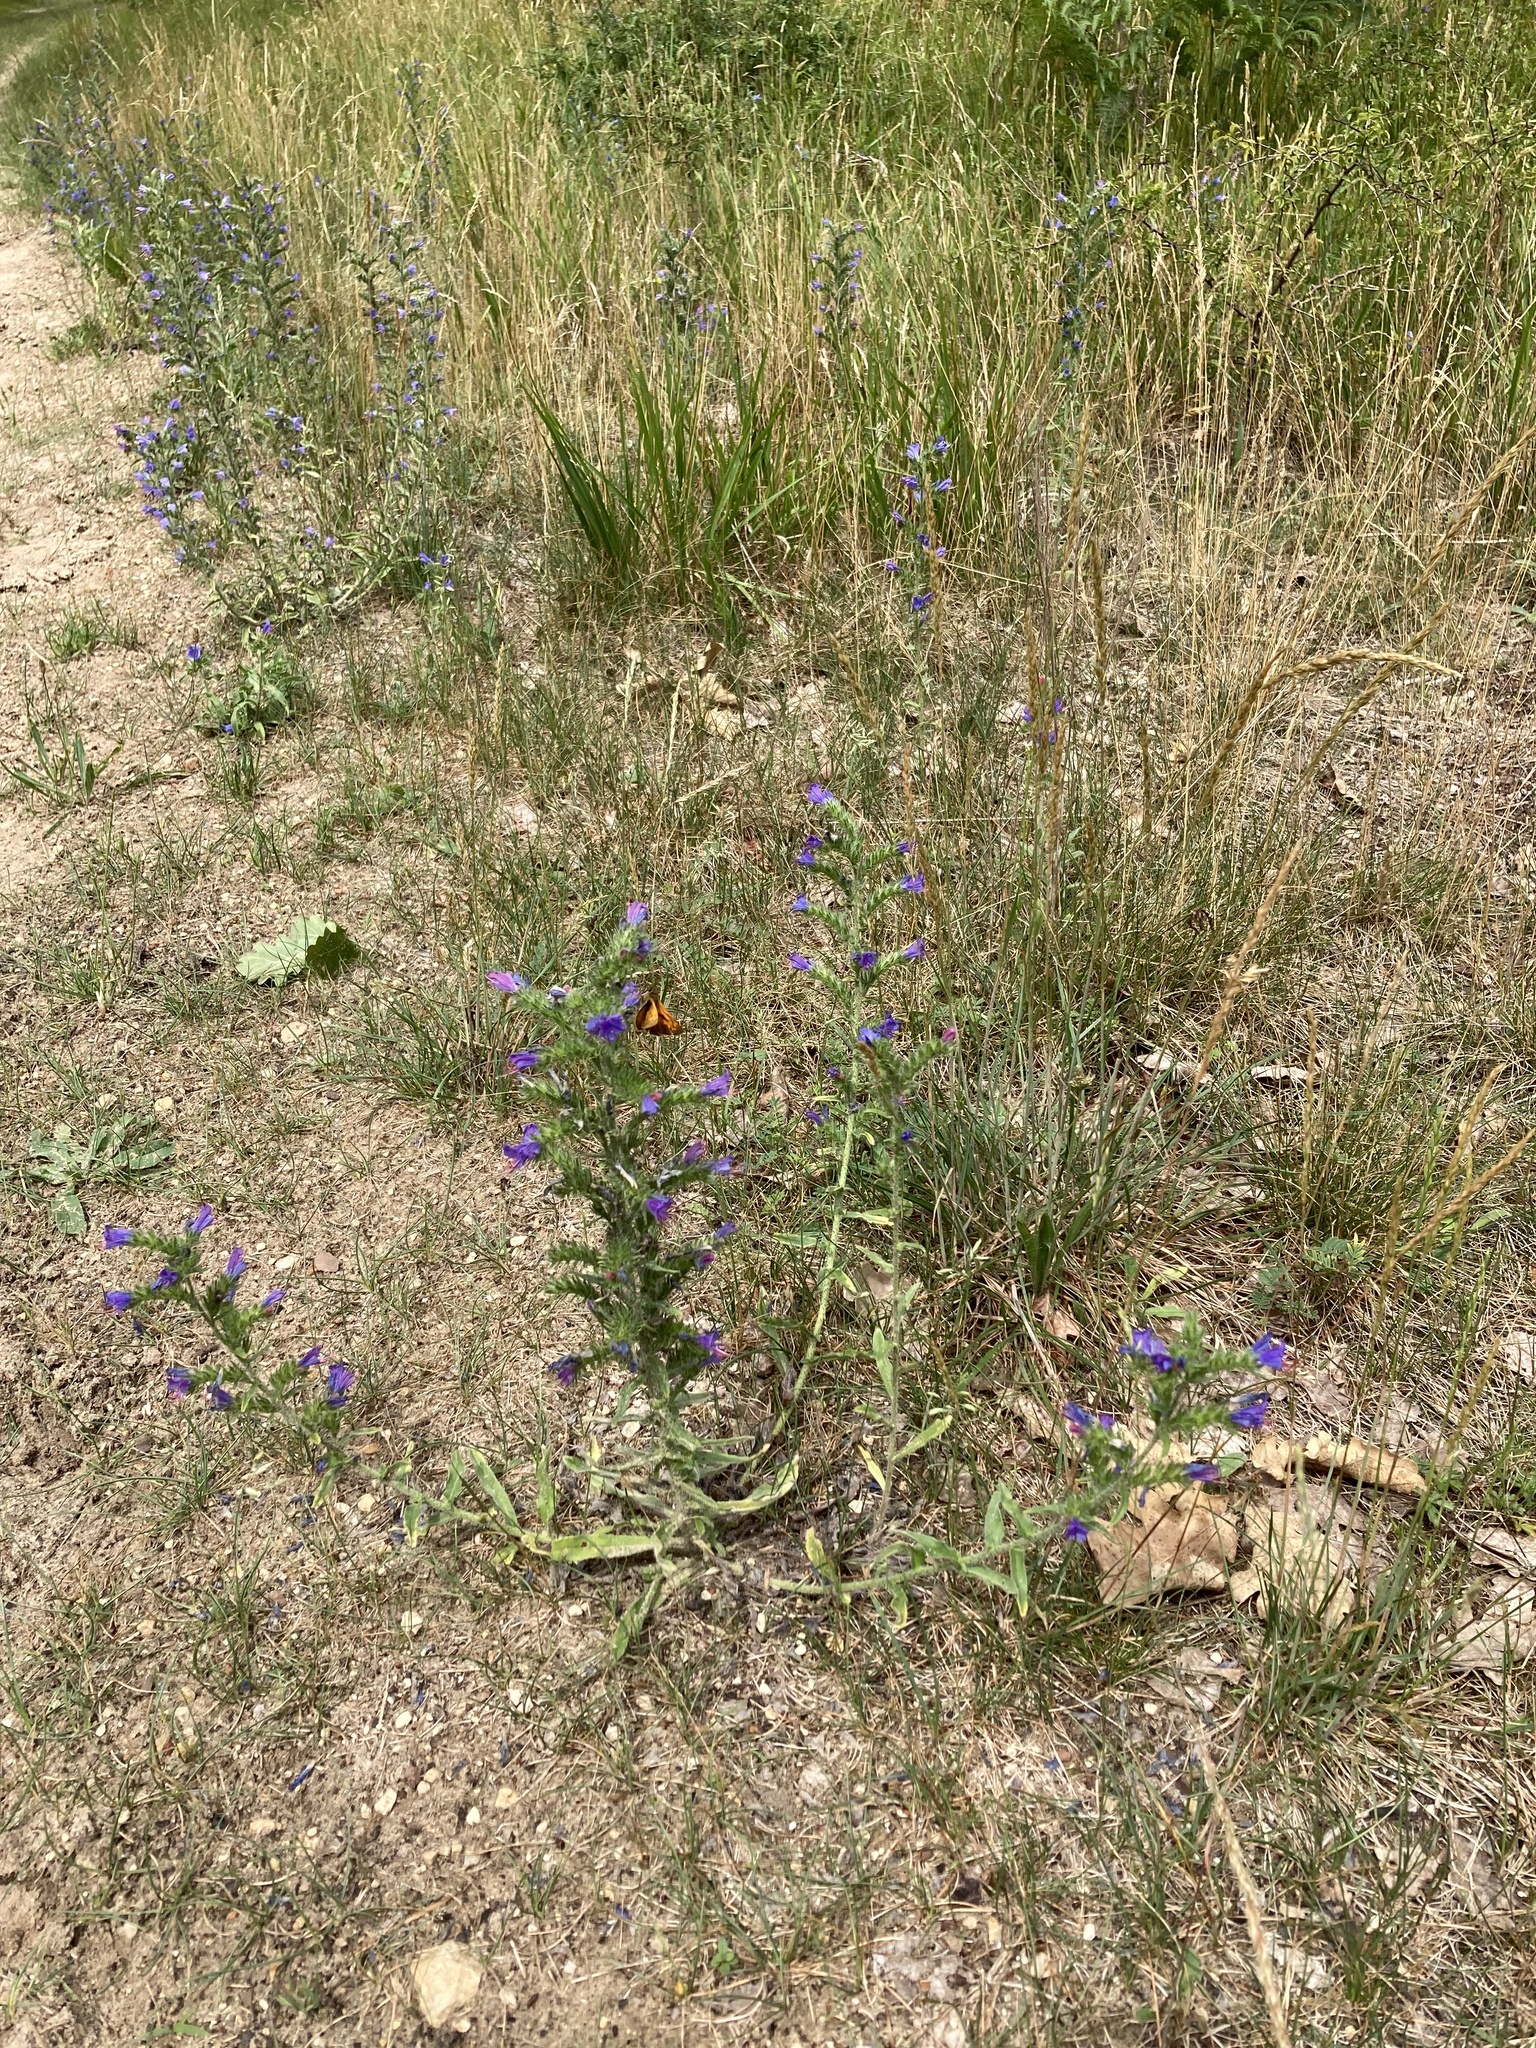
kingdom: Animalia
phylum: Arthropoda
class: Insecta
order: Lepidoptera
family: Hesperiidae
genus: Ochlodes
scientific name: Ochlodes venata
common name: Large skipper
